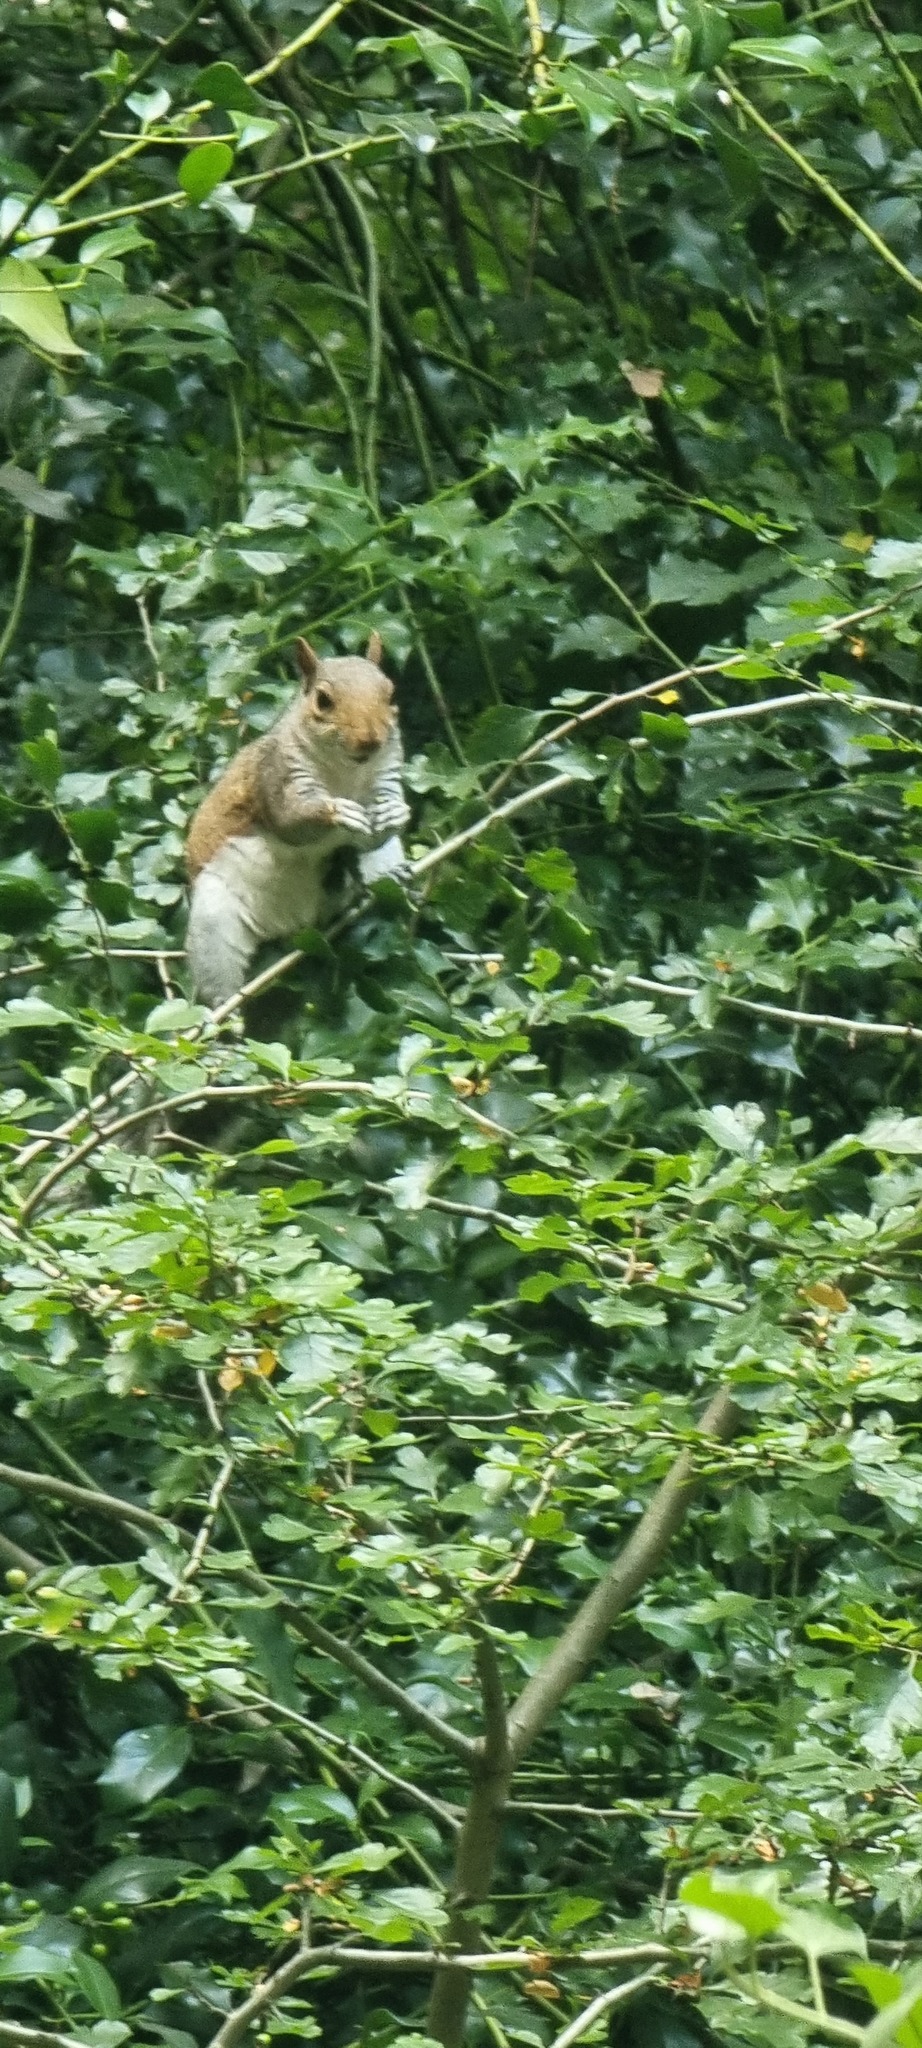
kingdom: Animalia
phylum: Chordata
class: Mammalia
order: Rodentia
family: Sciuridae
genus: Sciurus
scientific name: Sciurus carolinensis
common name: Eastern gray squirrel
